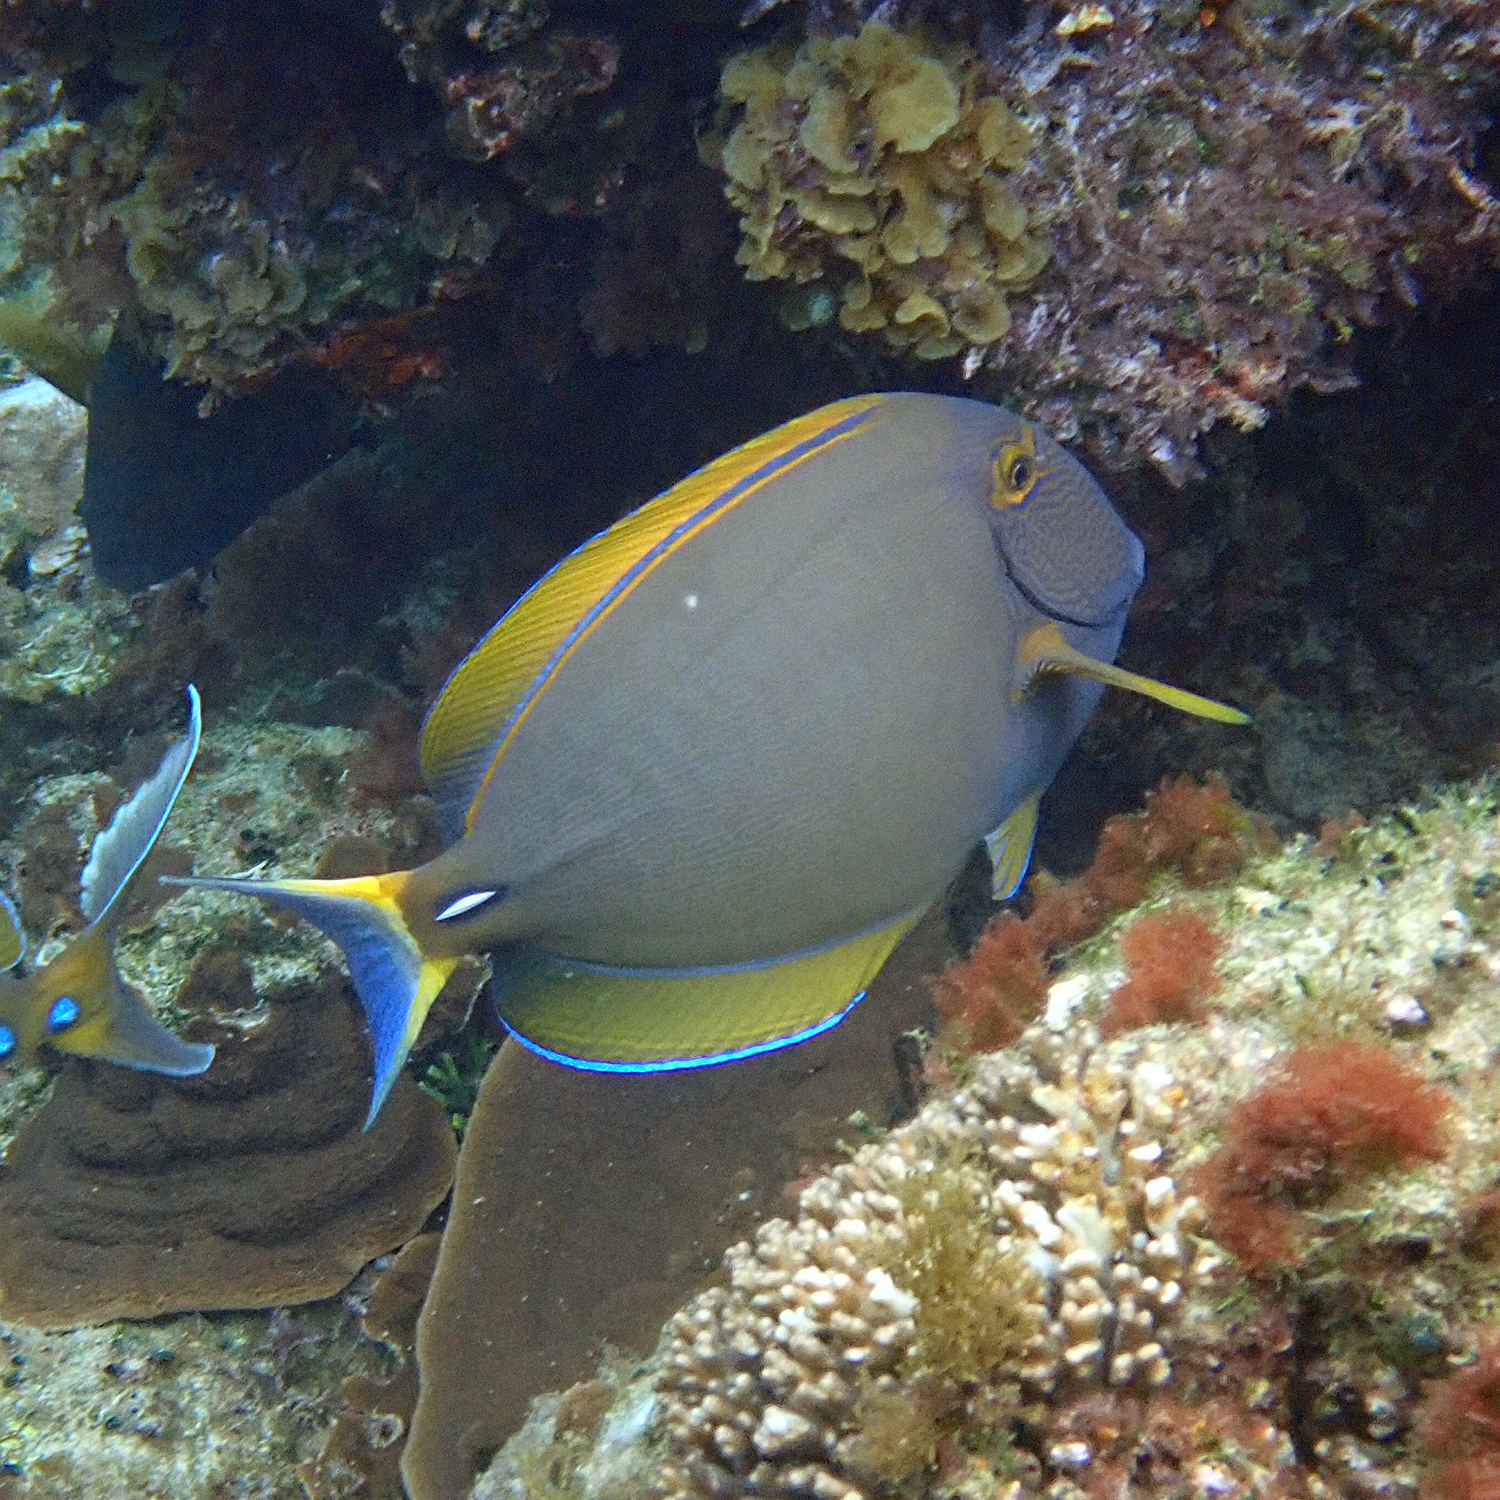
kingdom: Animalia
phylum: Chordata
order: Perciformes
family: Acanthuridae
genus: Acanthurus
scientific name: Acanthurus dussumieri
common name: Dussumier's surgeonfish
